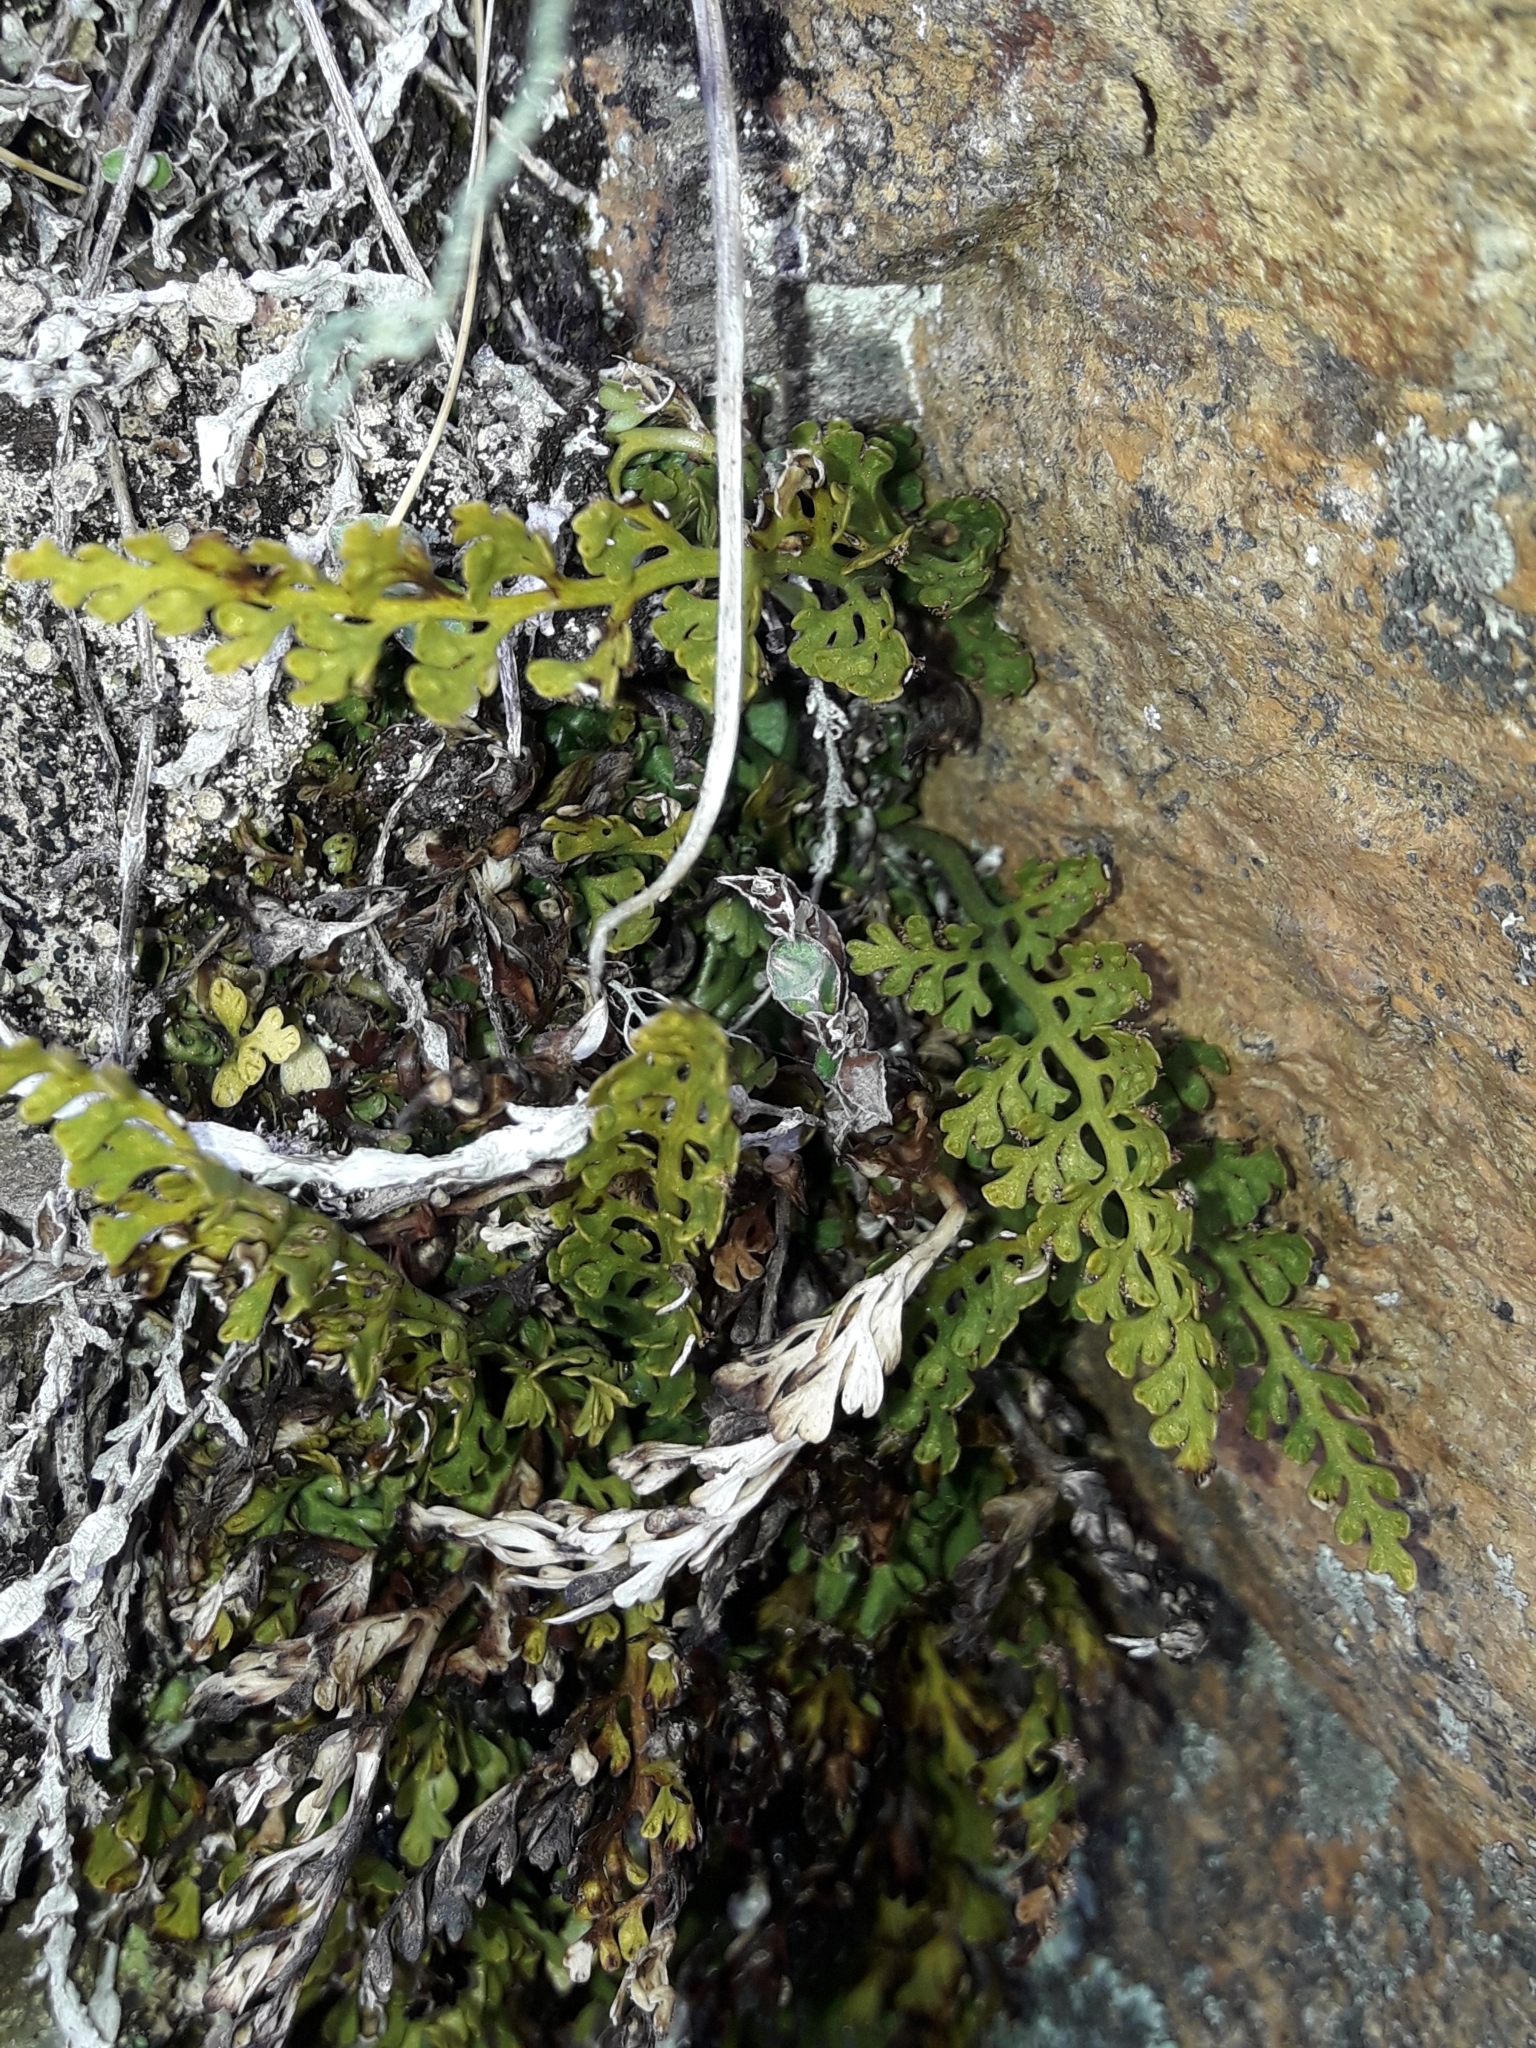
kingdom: Plantae
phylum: Tracheophyta
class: Polypodiopsida
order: Polypodiales
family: Aspleniaceae
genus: Asplenium
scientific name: Asplenium richardii
